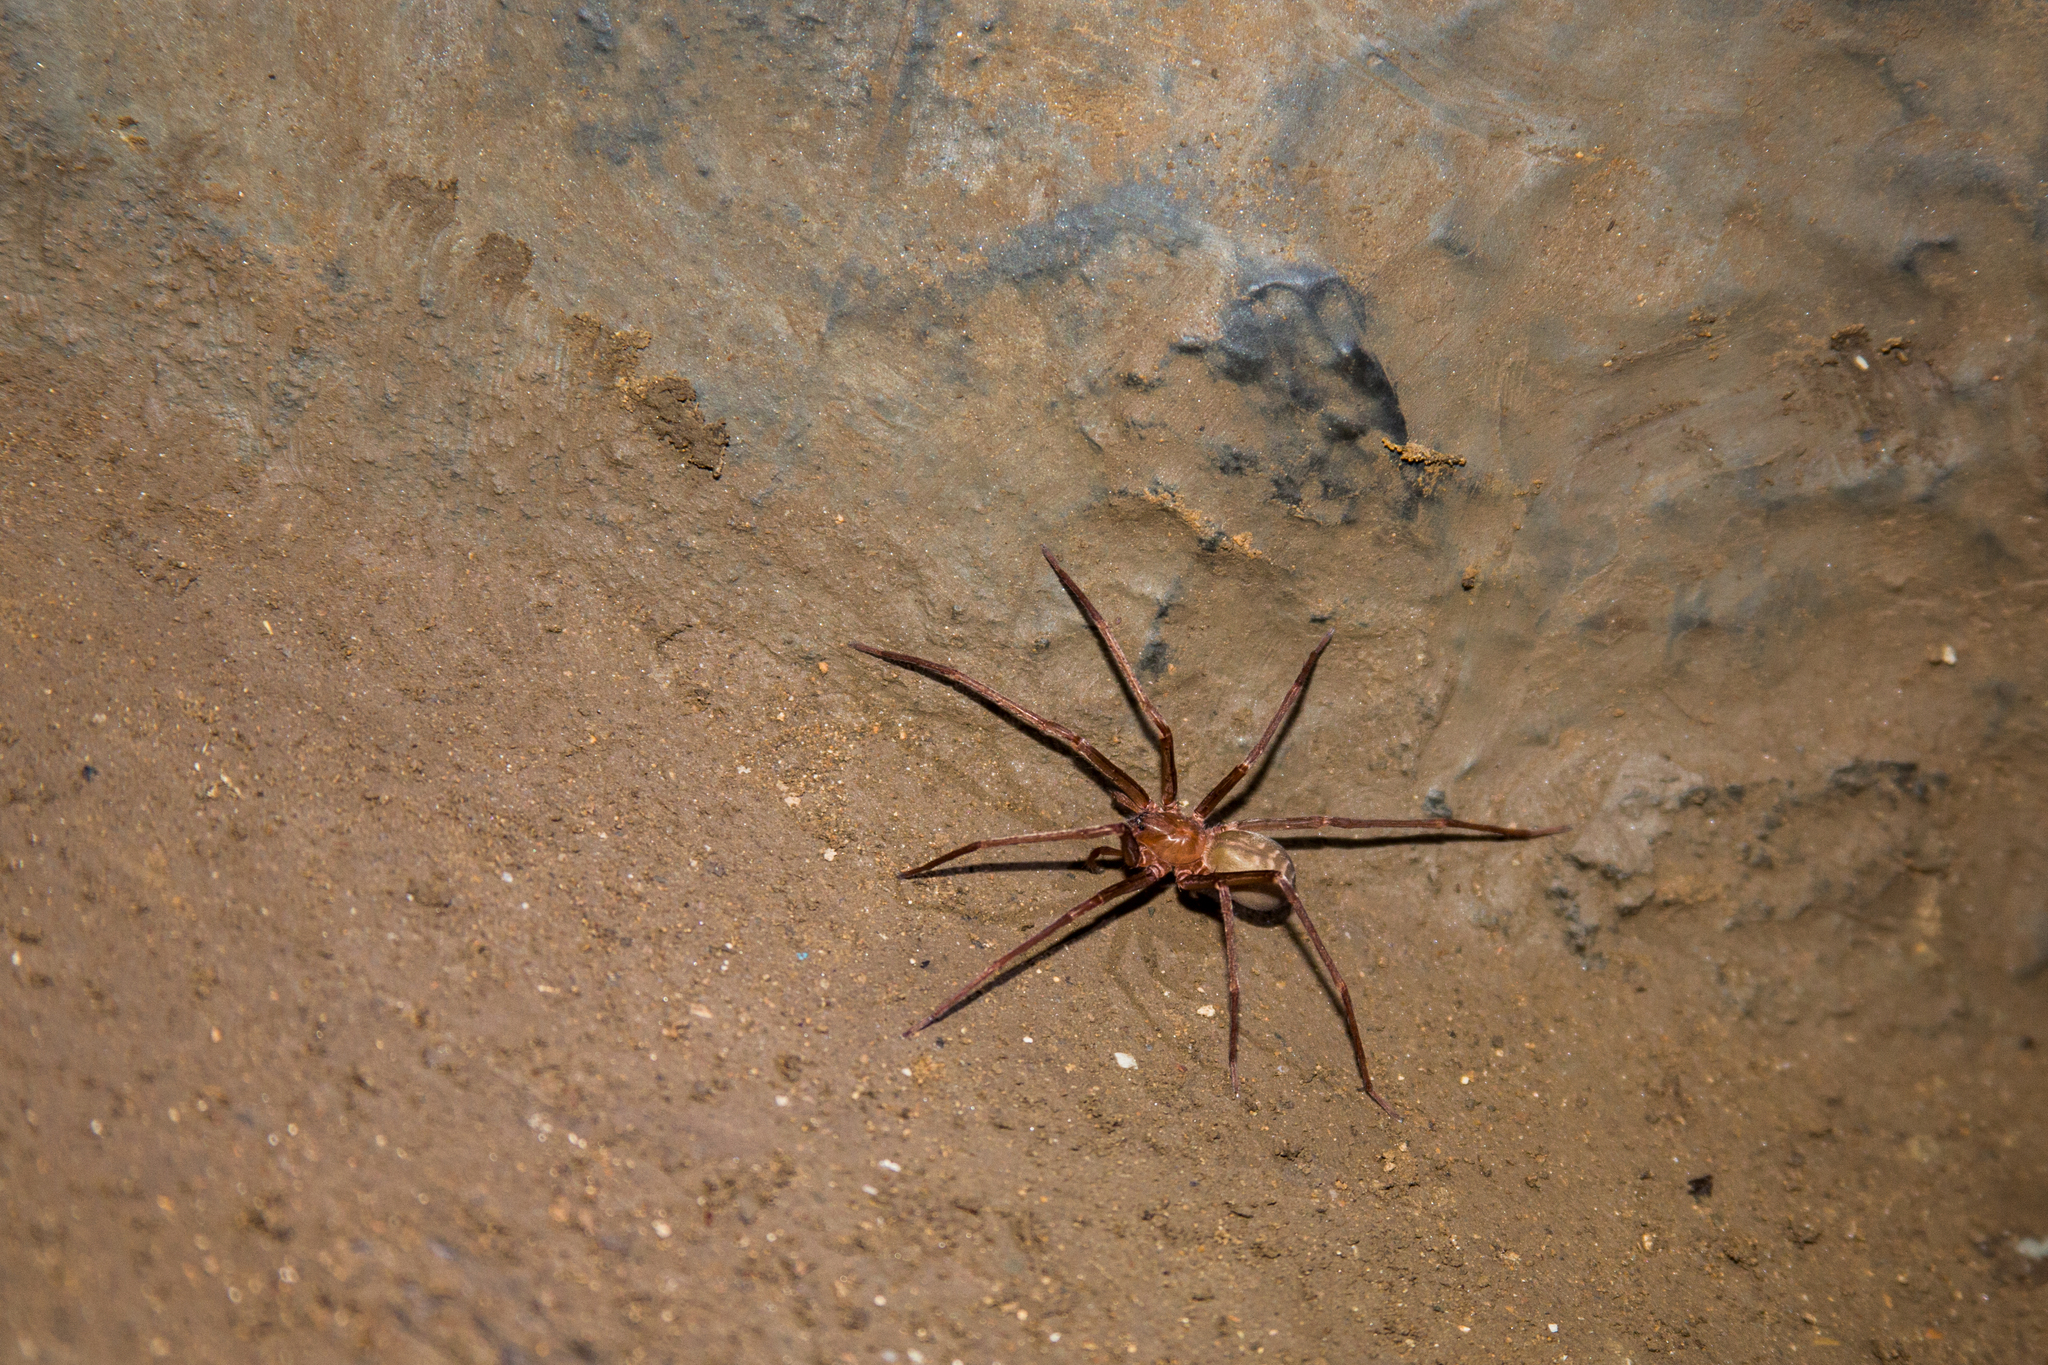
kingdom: Animalia
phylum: Arthropoda
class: Arachnida
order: Araneae
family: Ctenidae
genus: Ctenus
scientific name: Ctenus fasciatus
